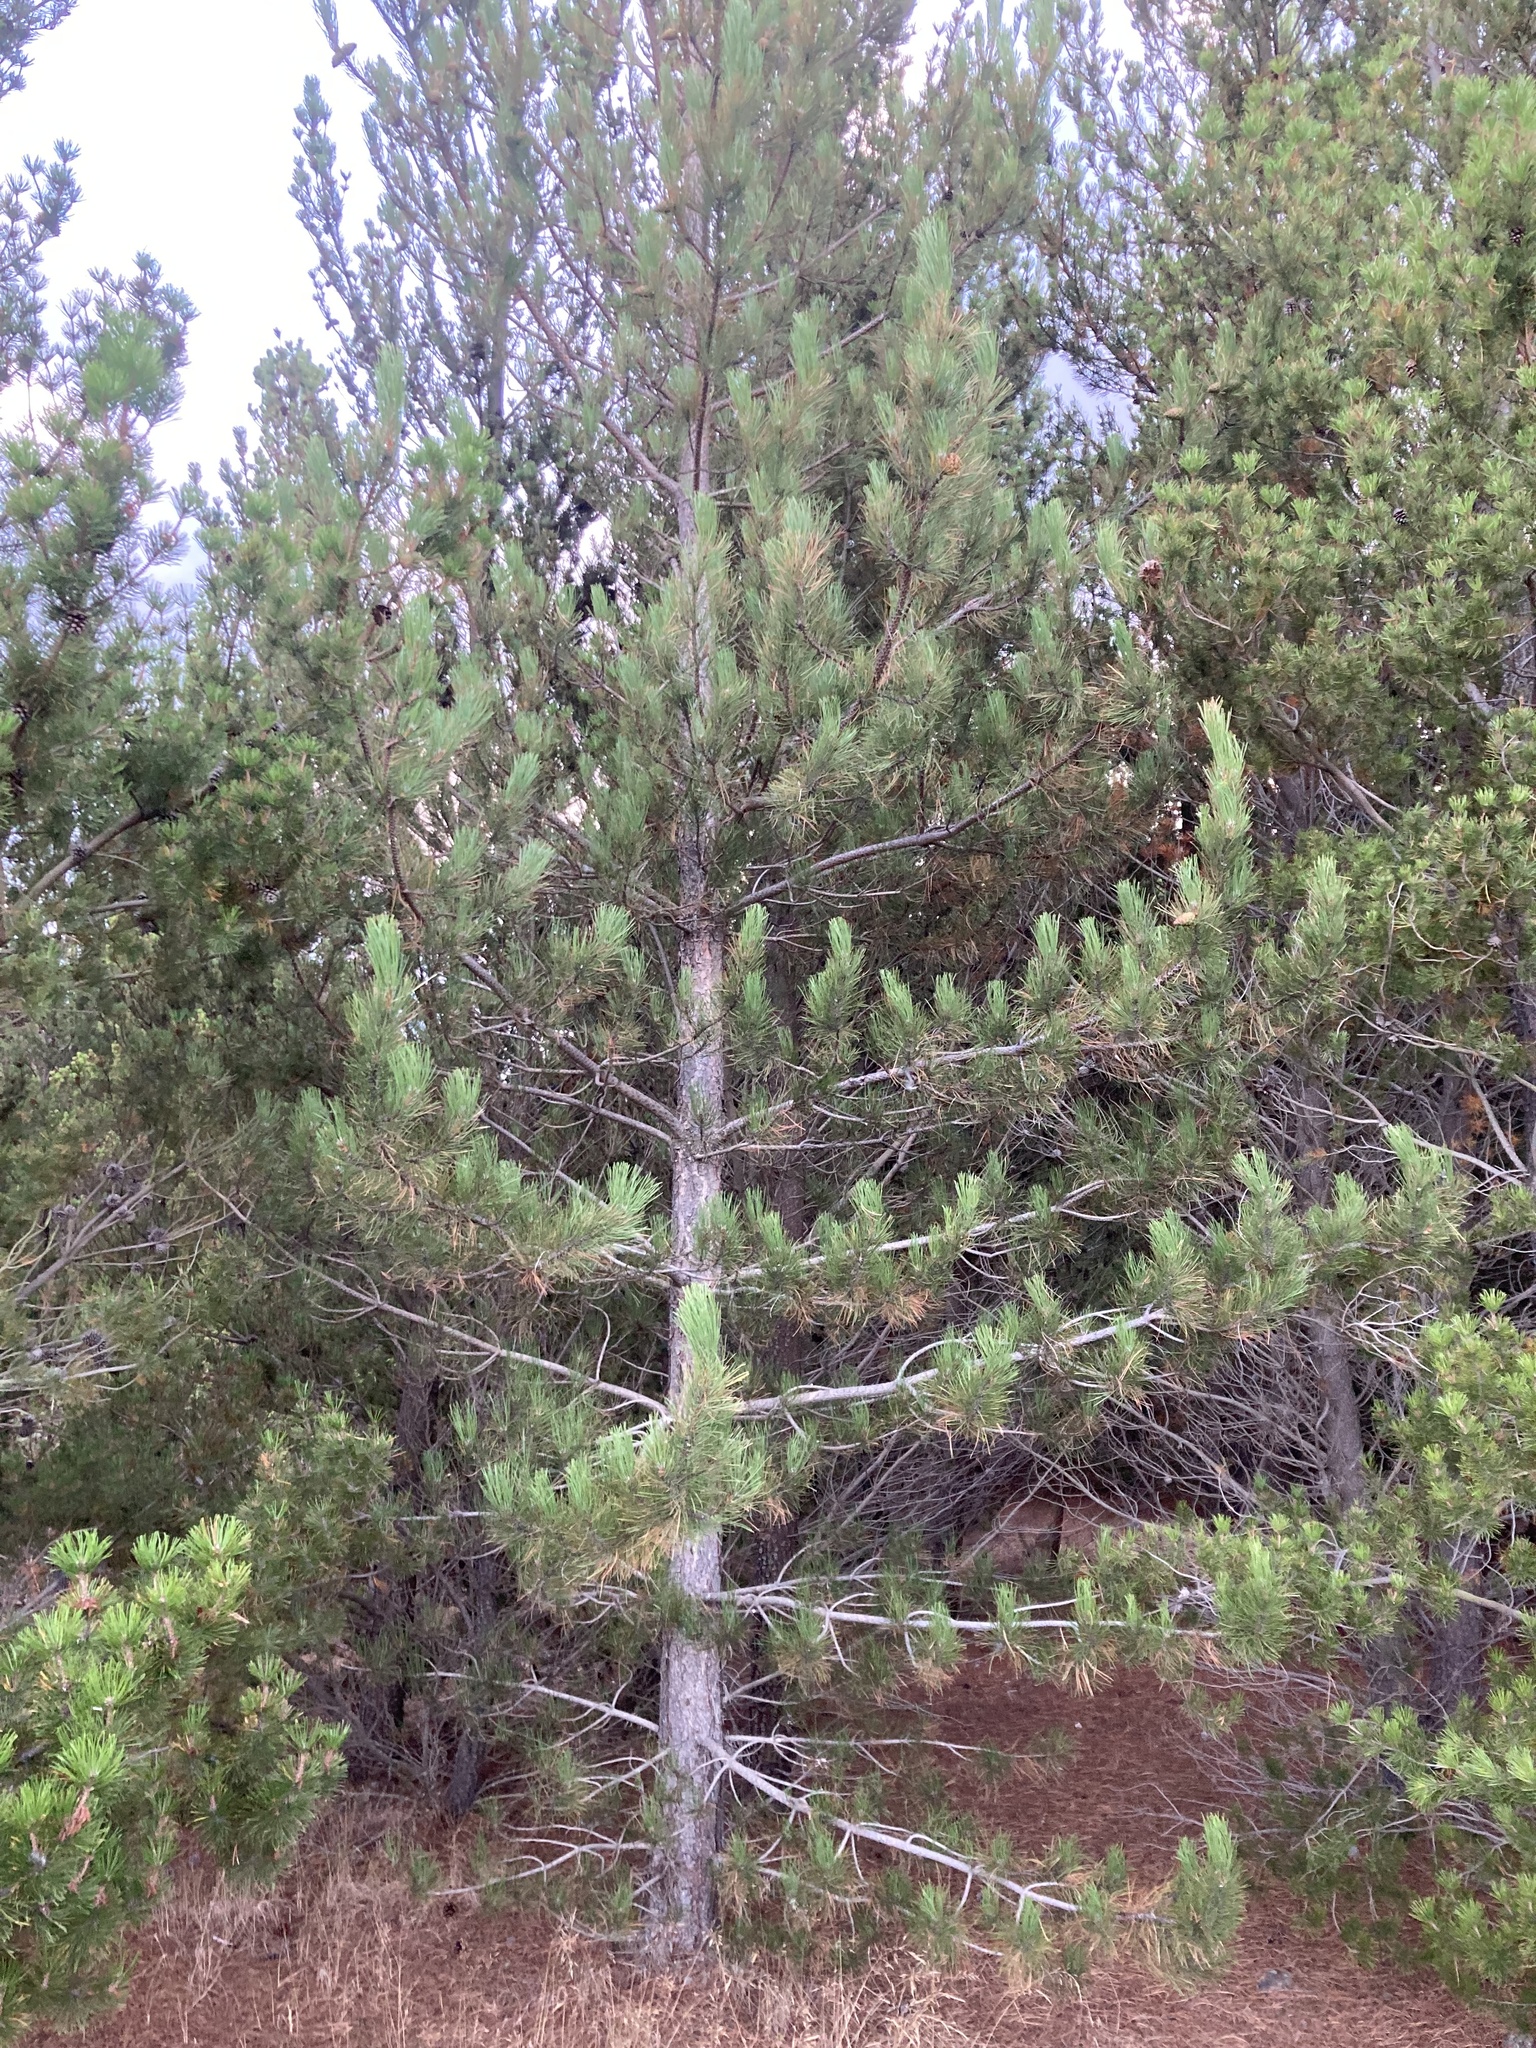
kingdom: Plantae
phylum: Tracheophyta
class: Pinopsida
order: Pinales
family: Pinaceae
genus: Pinus
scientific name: Pinus nigra
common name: Austrian pine
